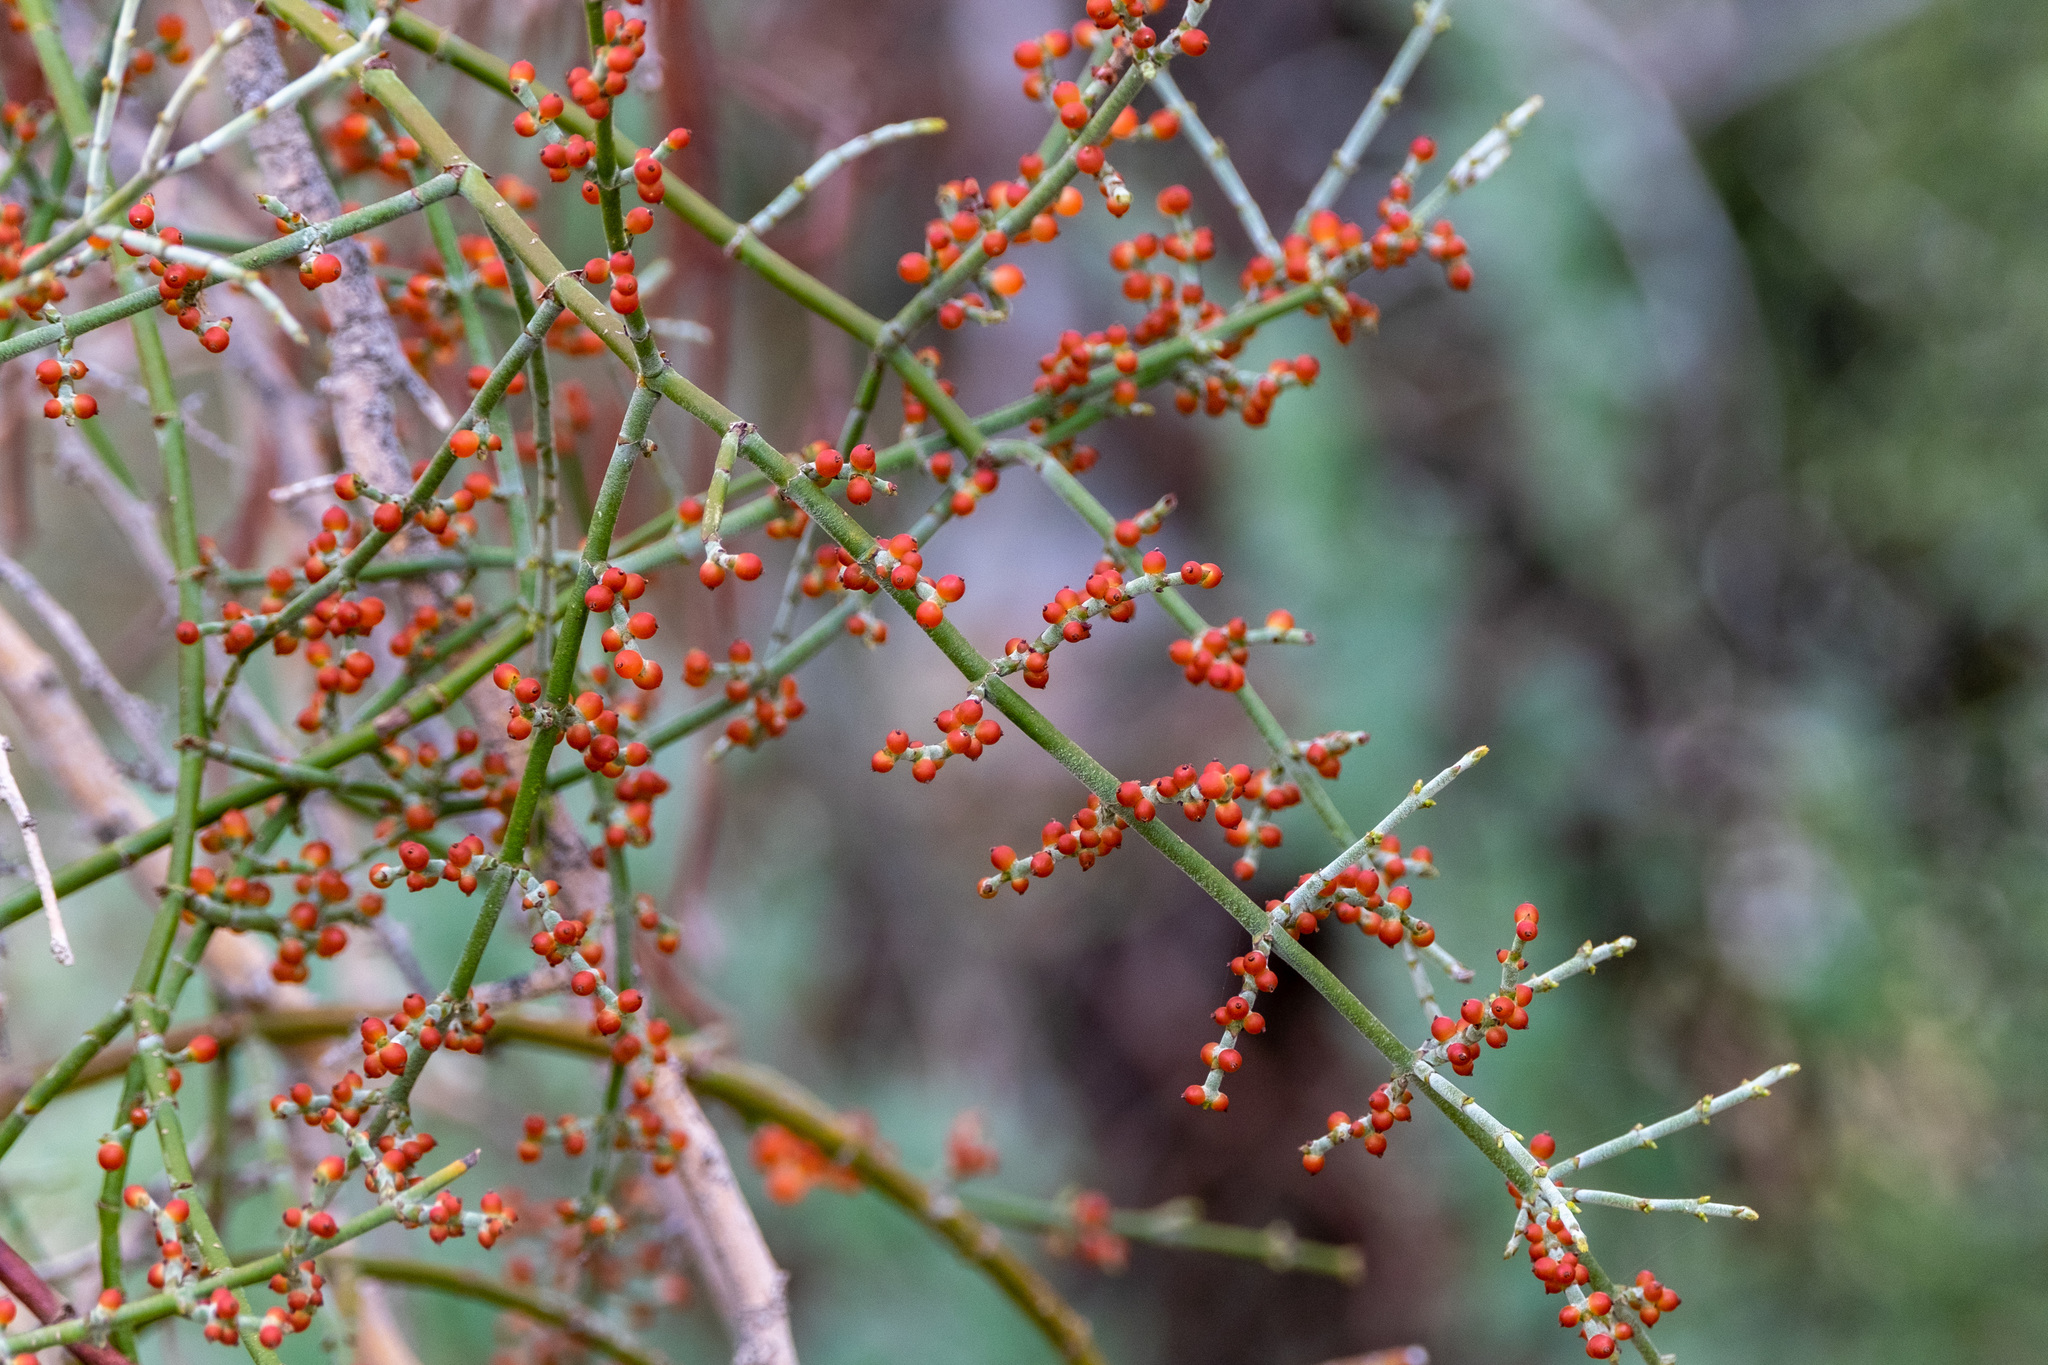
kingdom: Plantae
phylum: Tracheophyta
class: Magnoliopsida
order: Santalales
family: Viscaceae
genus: Phoradendron
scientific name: Phoradendron californicum
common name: Acacia mistletoe
